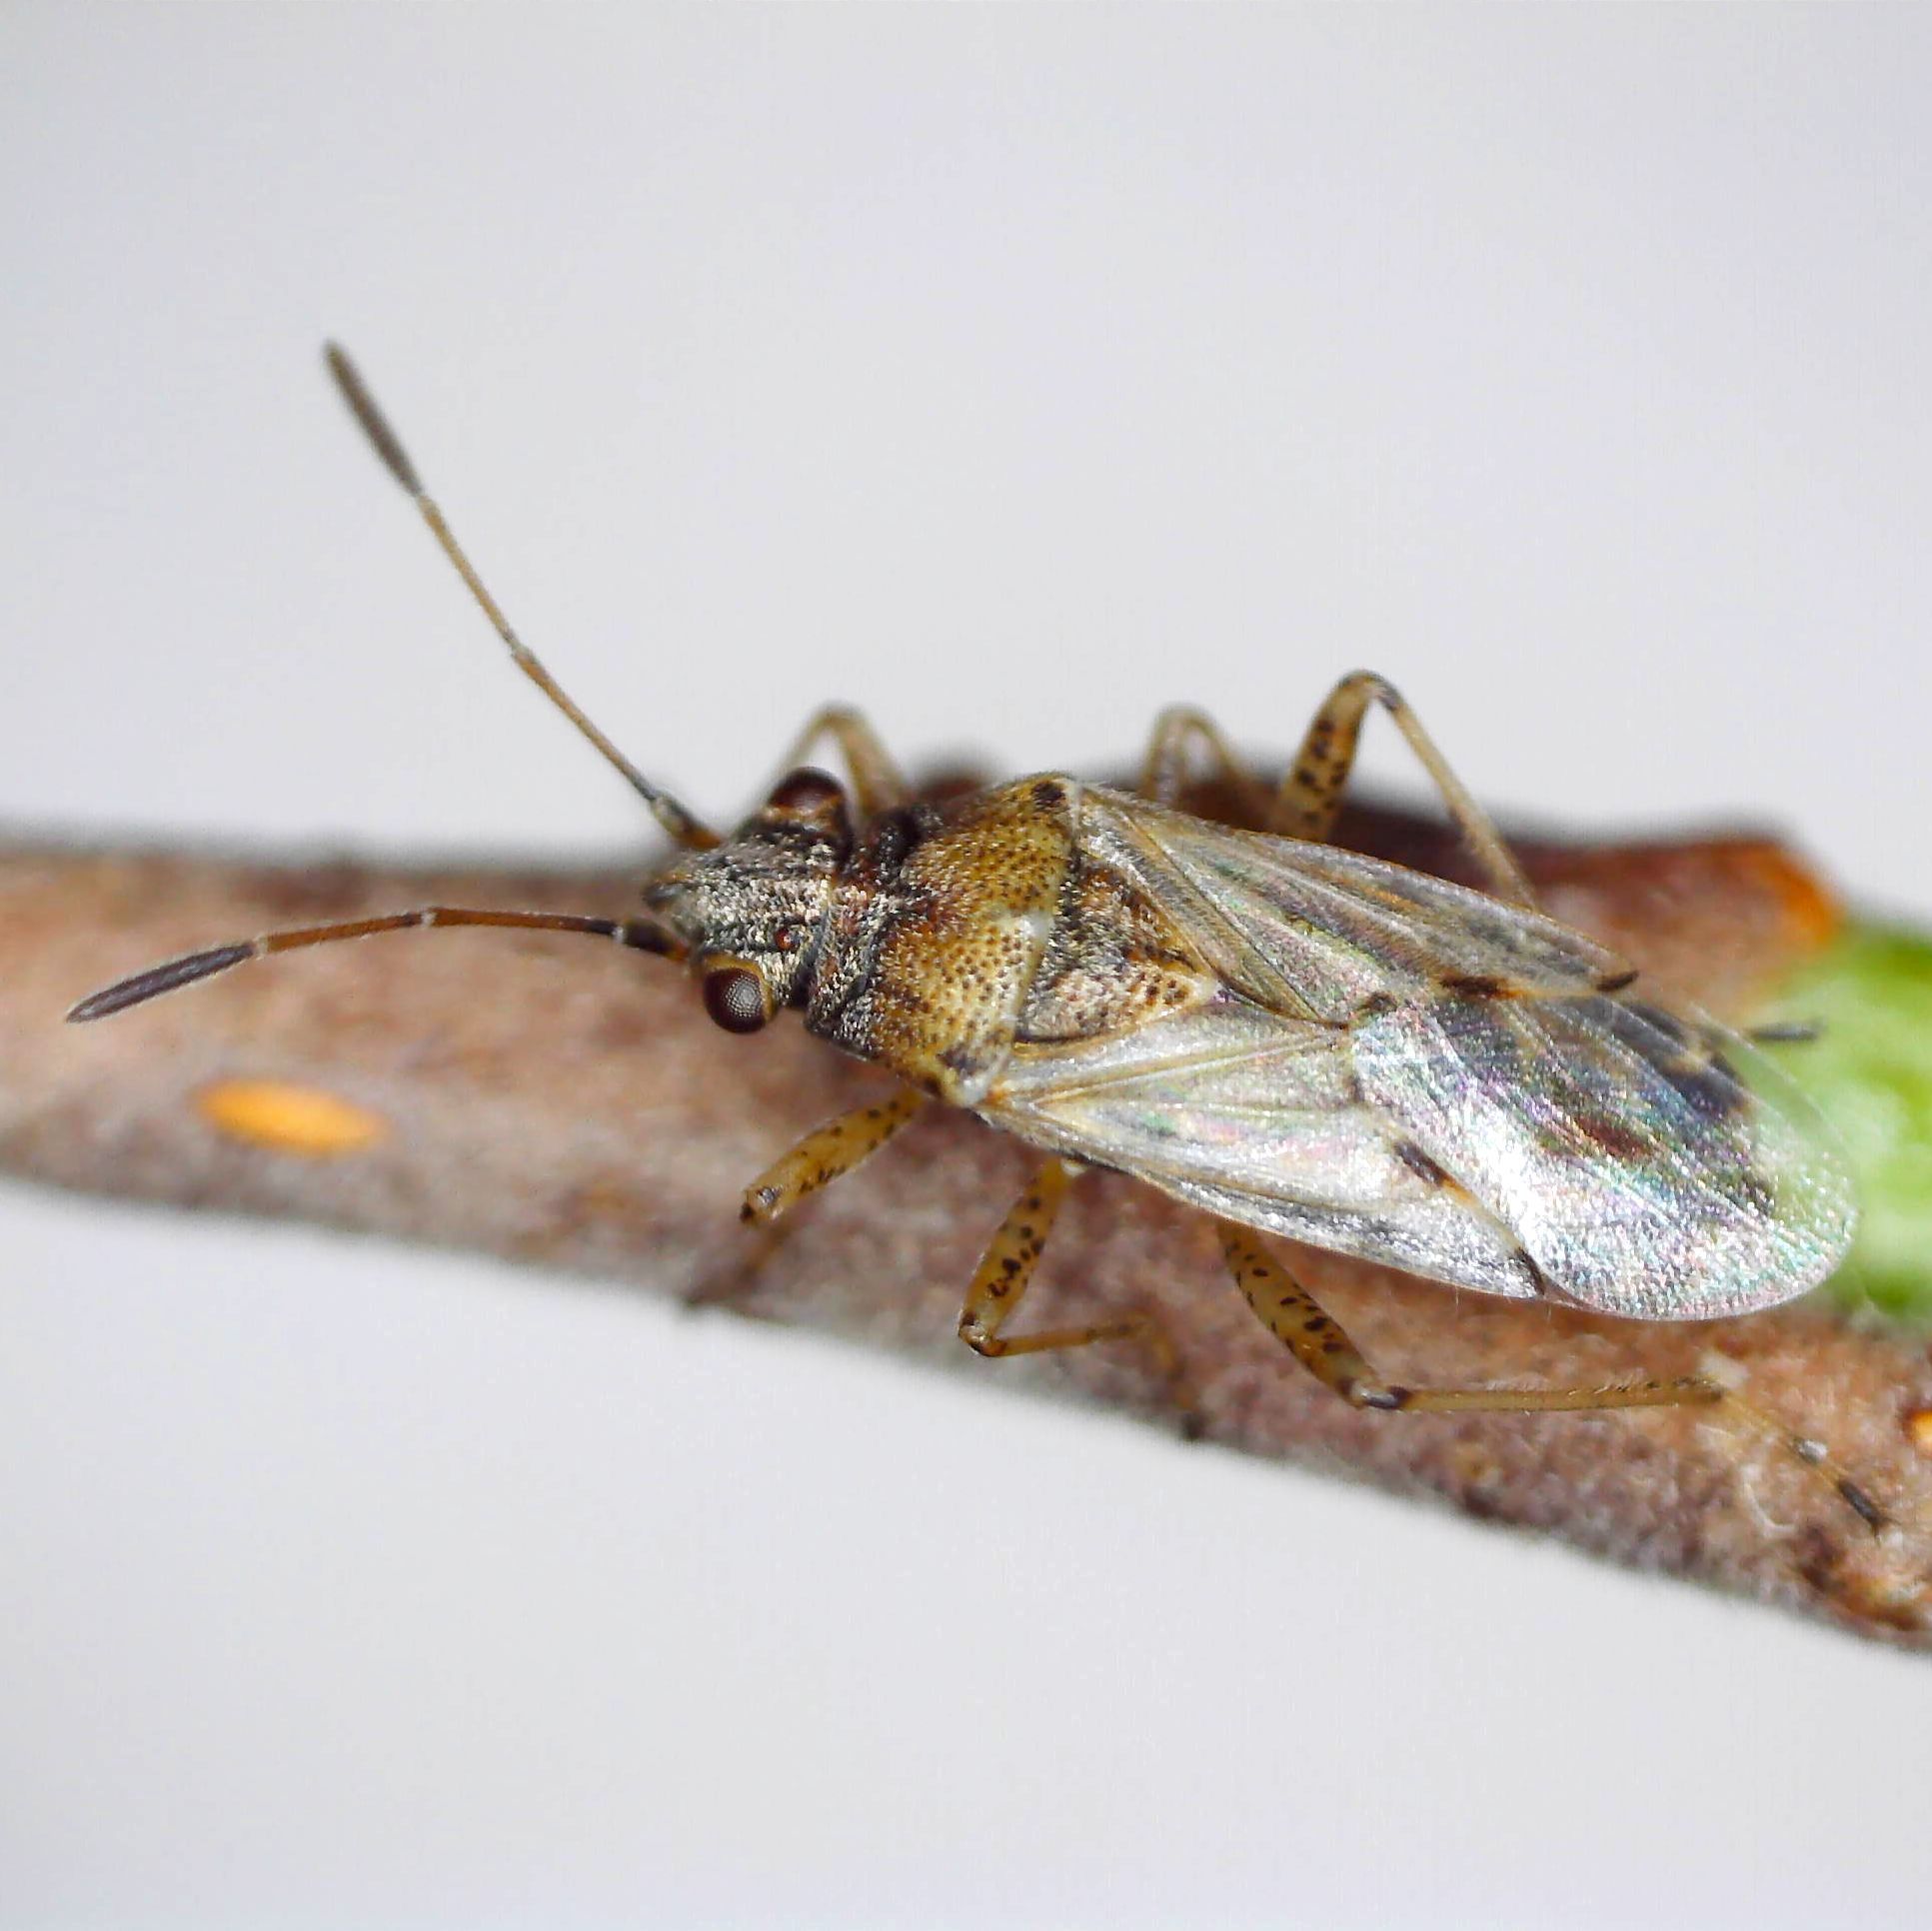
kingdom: Animalia
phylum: Arthropoda
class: Insecta
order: Hemiptera
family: Lygaeidae
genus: Nysius
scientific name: Nysius graminicola
